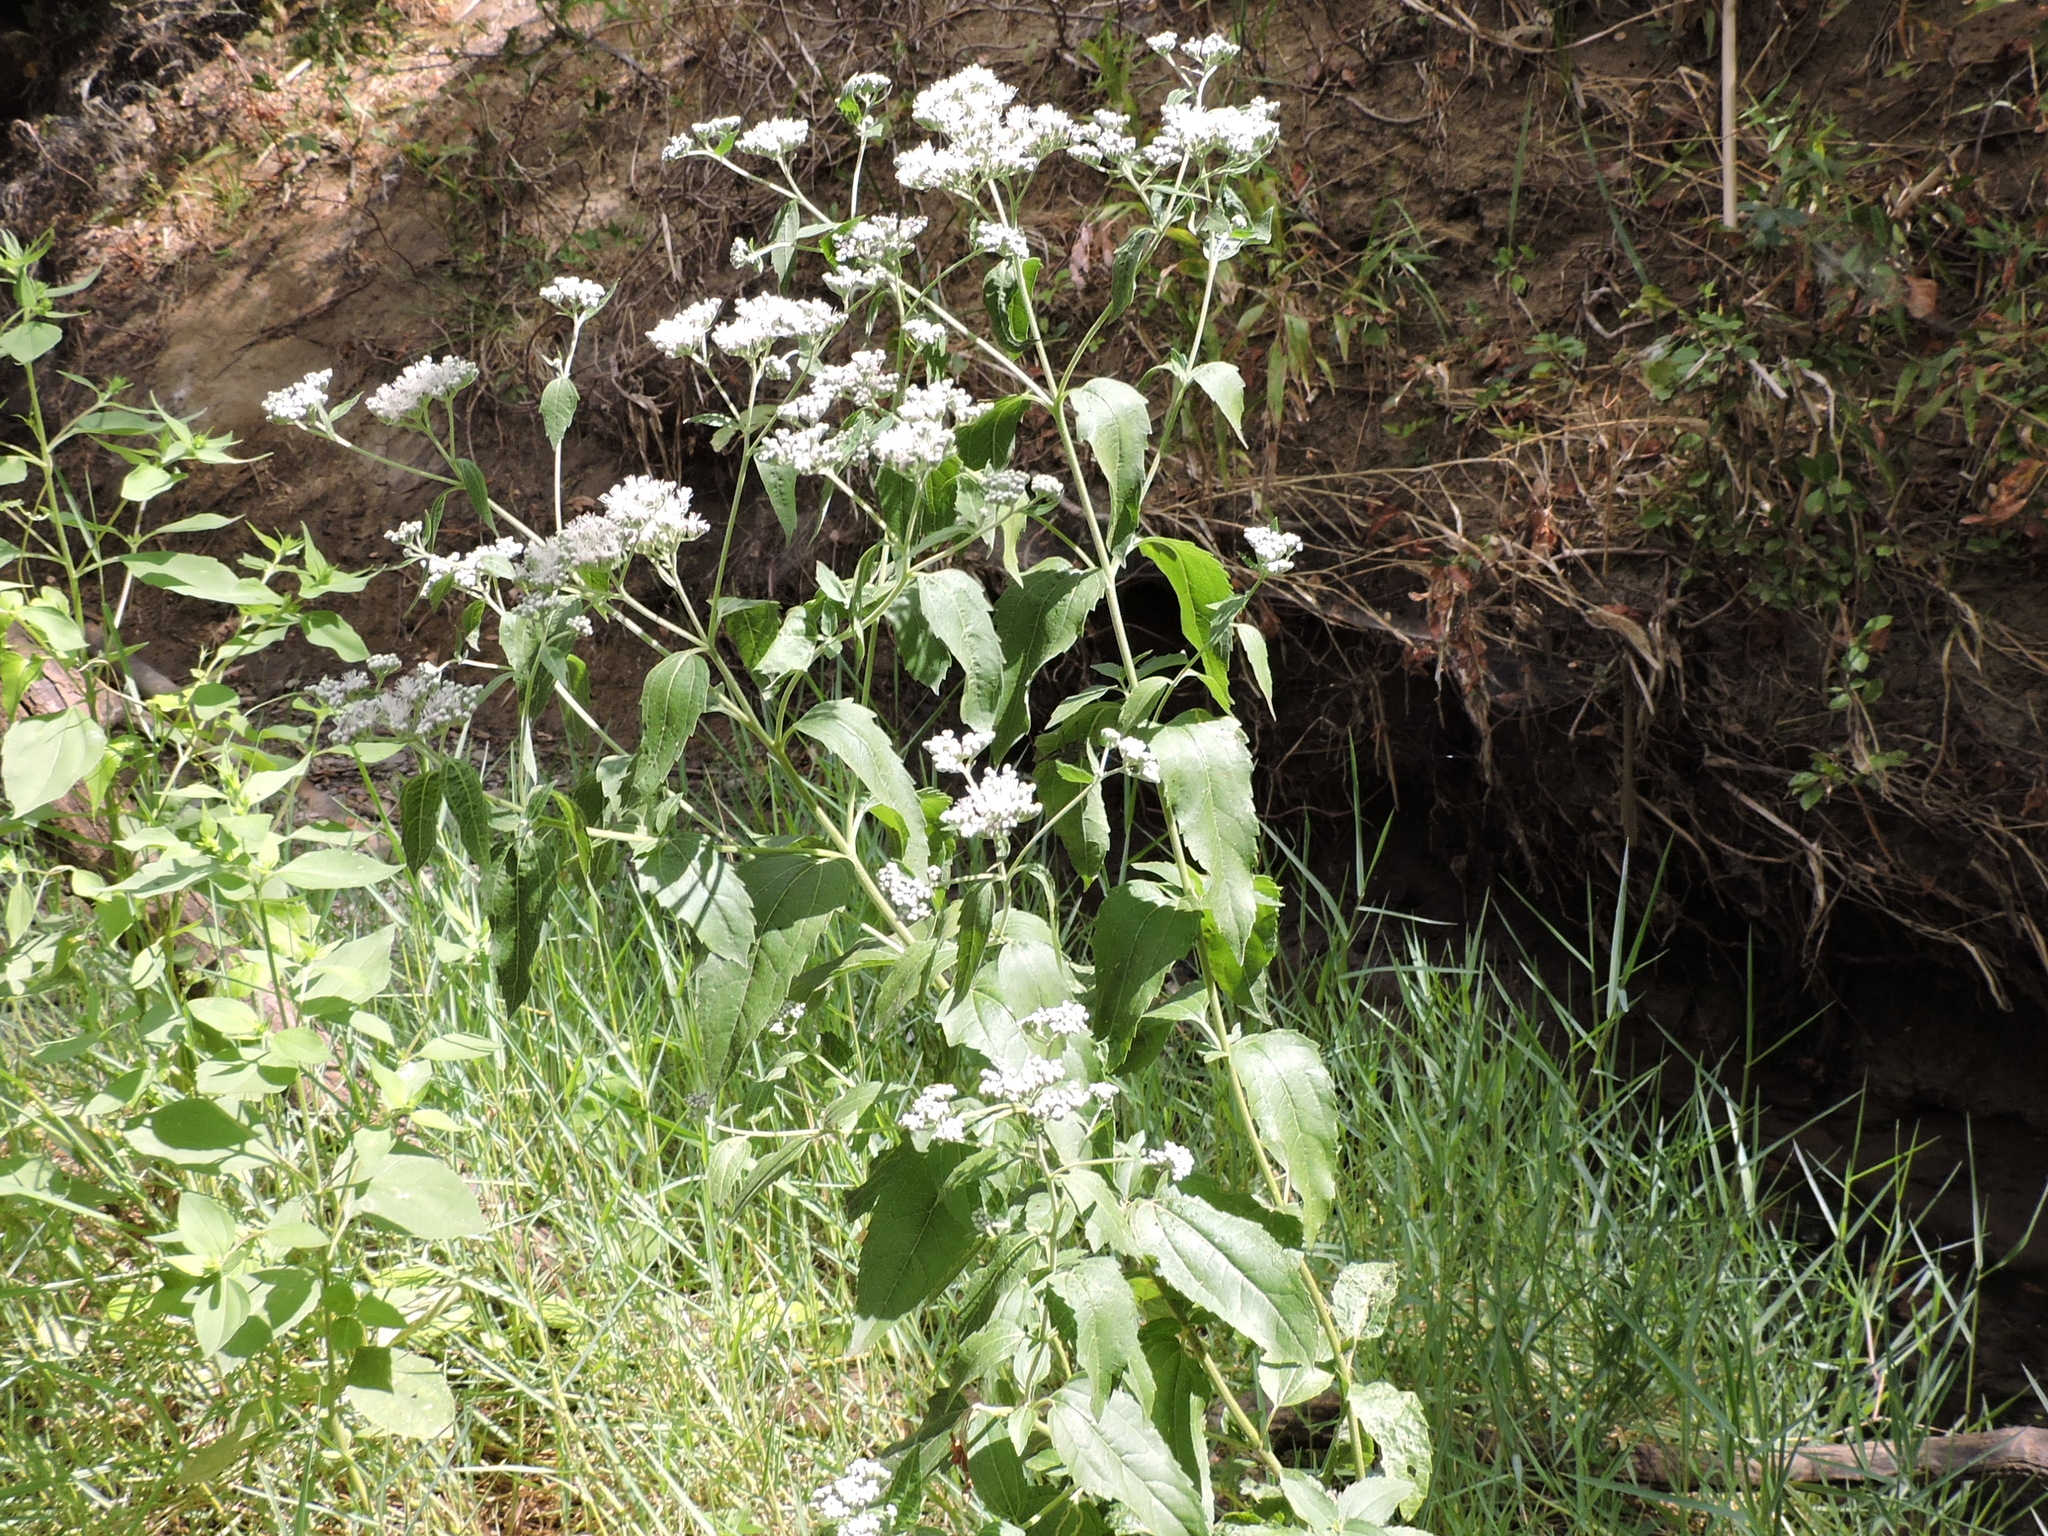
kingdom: Plantae
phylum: Tracheophyta
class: Magnoliopsida
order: Asterales
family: Asteraceae
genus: Eupatorium
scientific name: Eupatorium serotinum
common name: Late boneset
